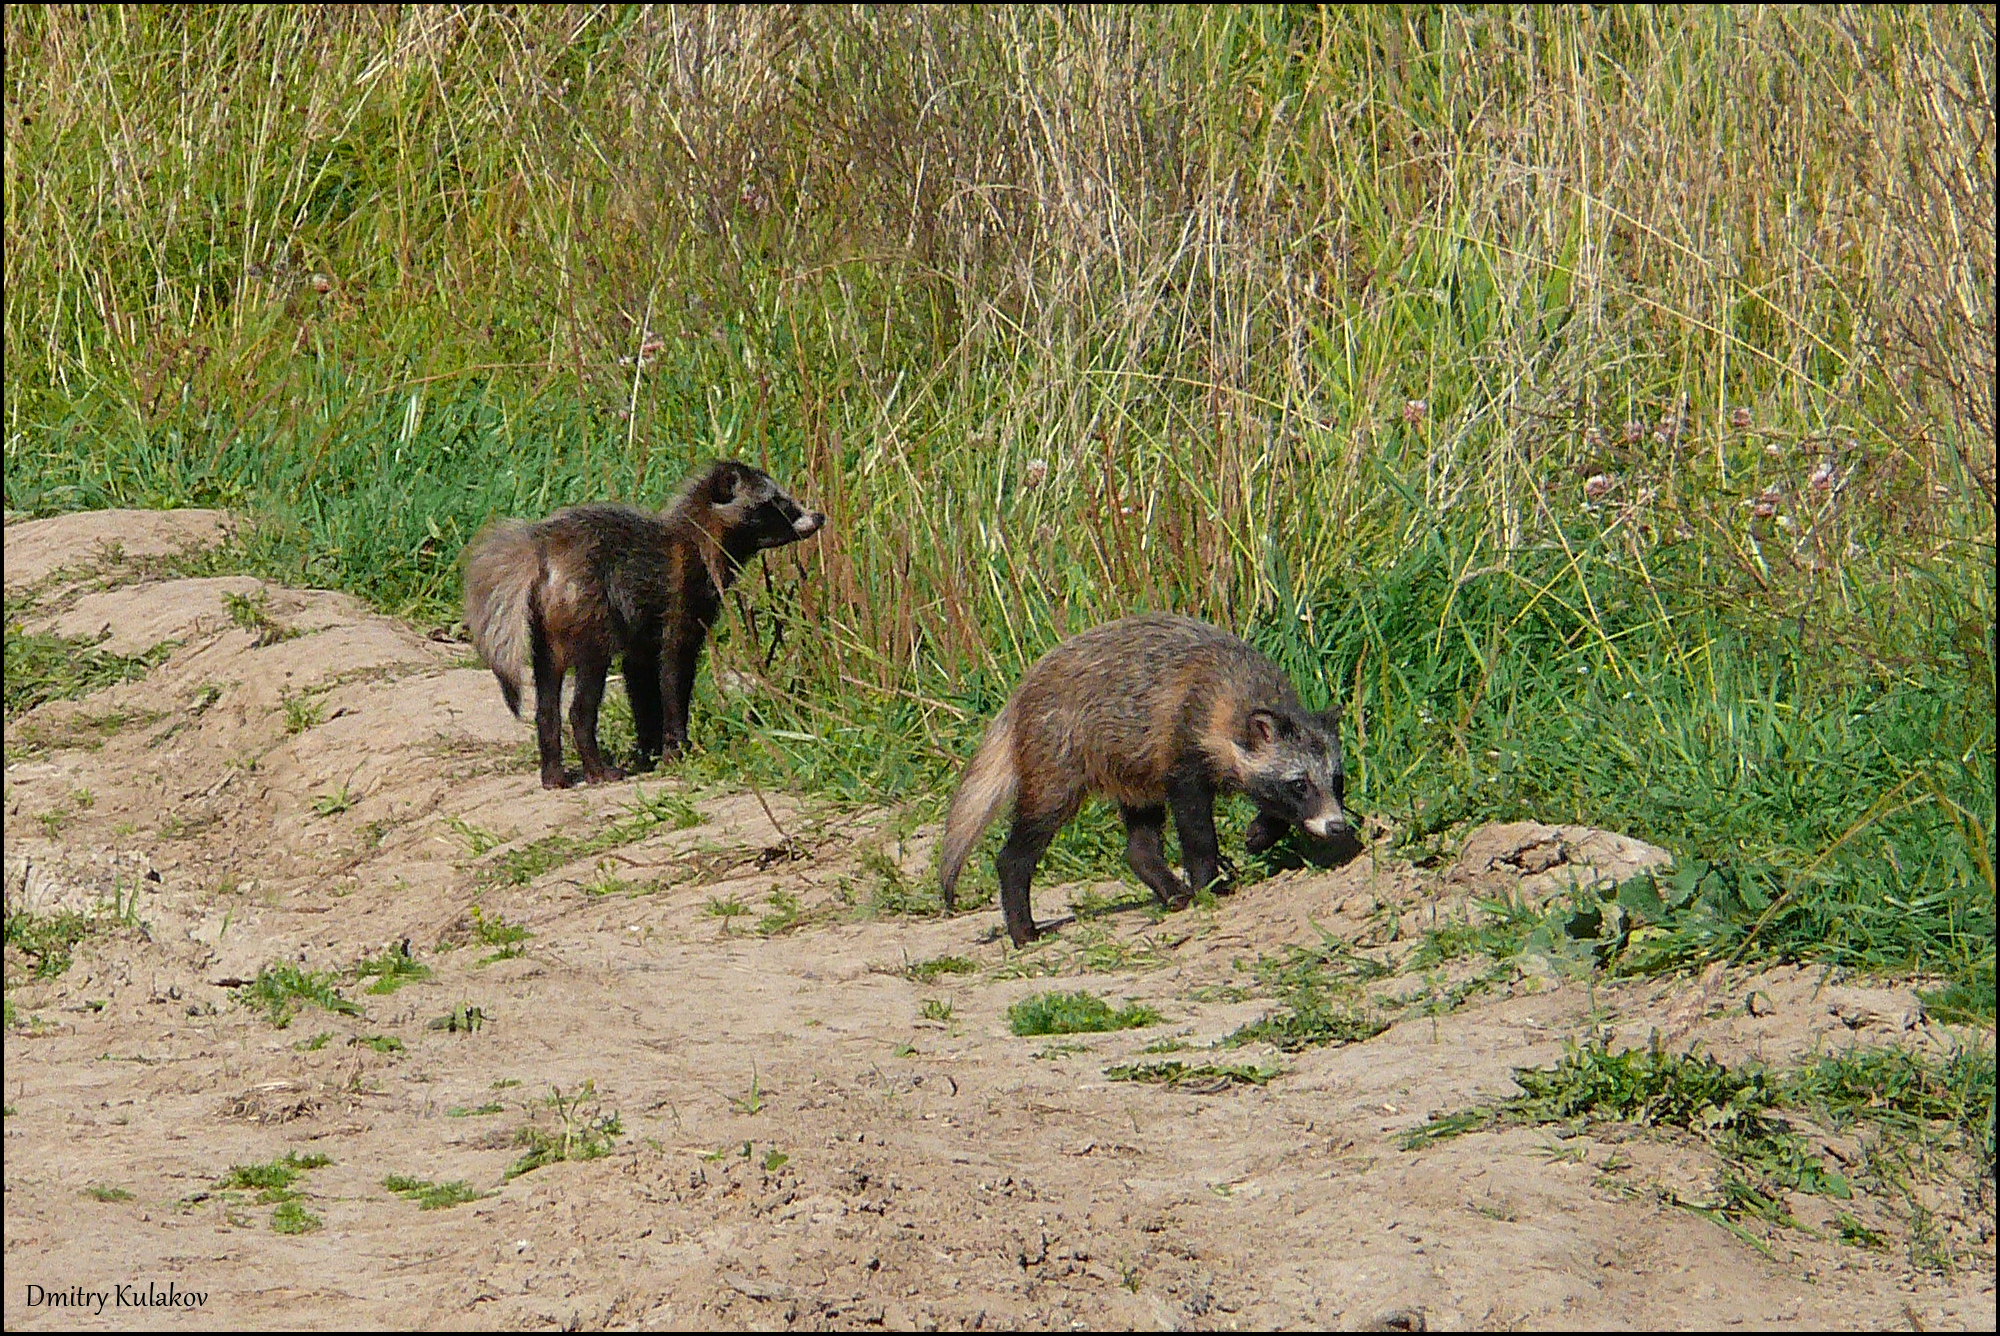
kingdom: Animalia
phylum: Chordata
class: Mammalia
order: Carnivora
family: Canidae
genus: Nyctereutes
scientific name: Nyctereutes procyonoides
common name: Raccoon dog
